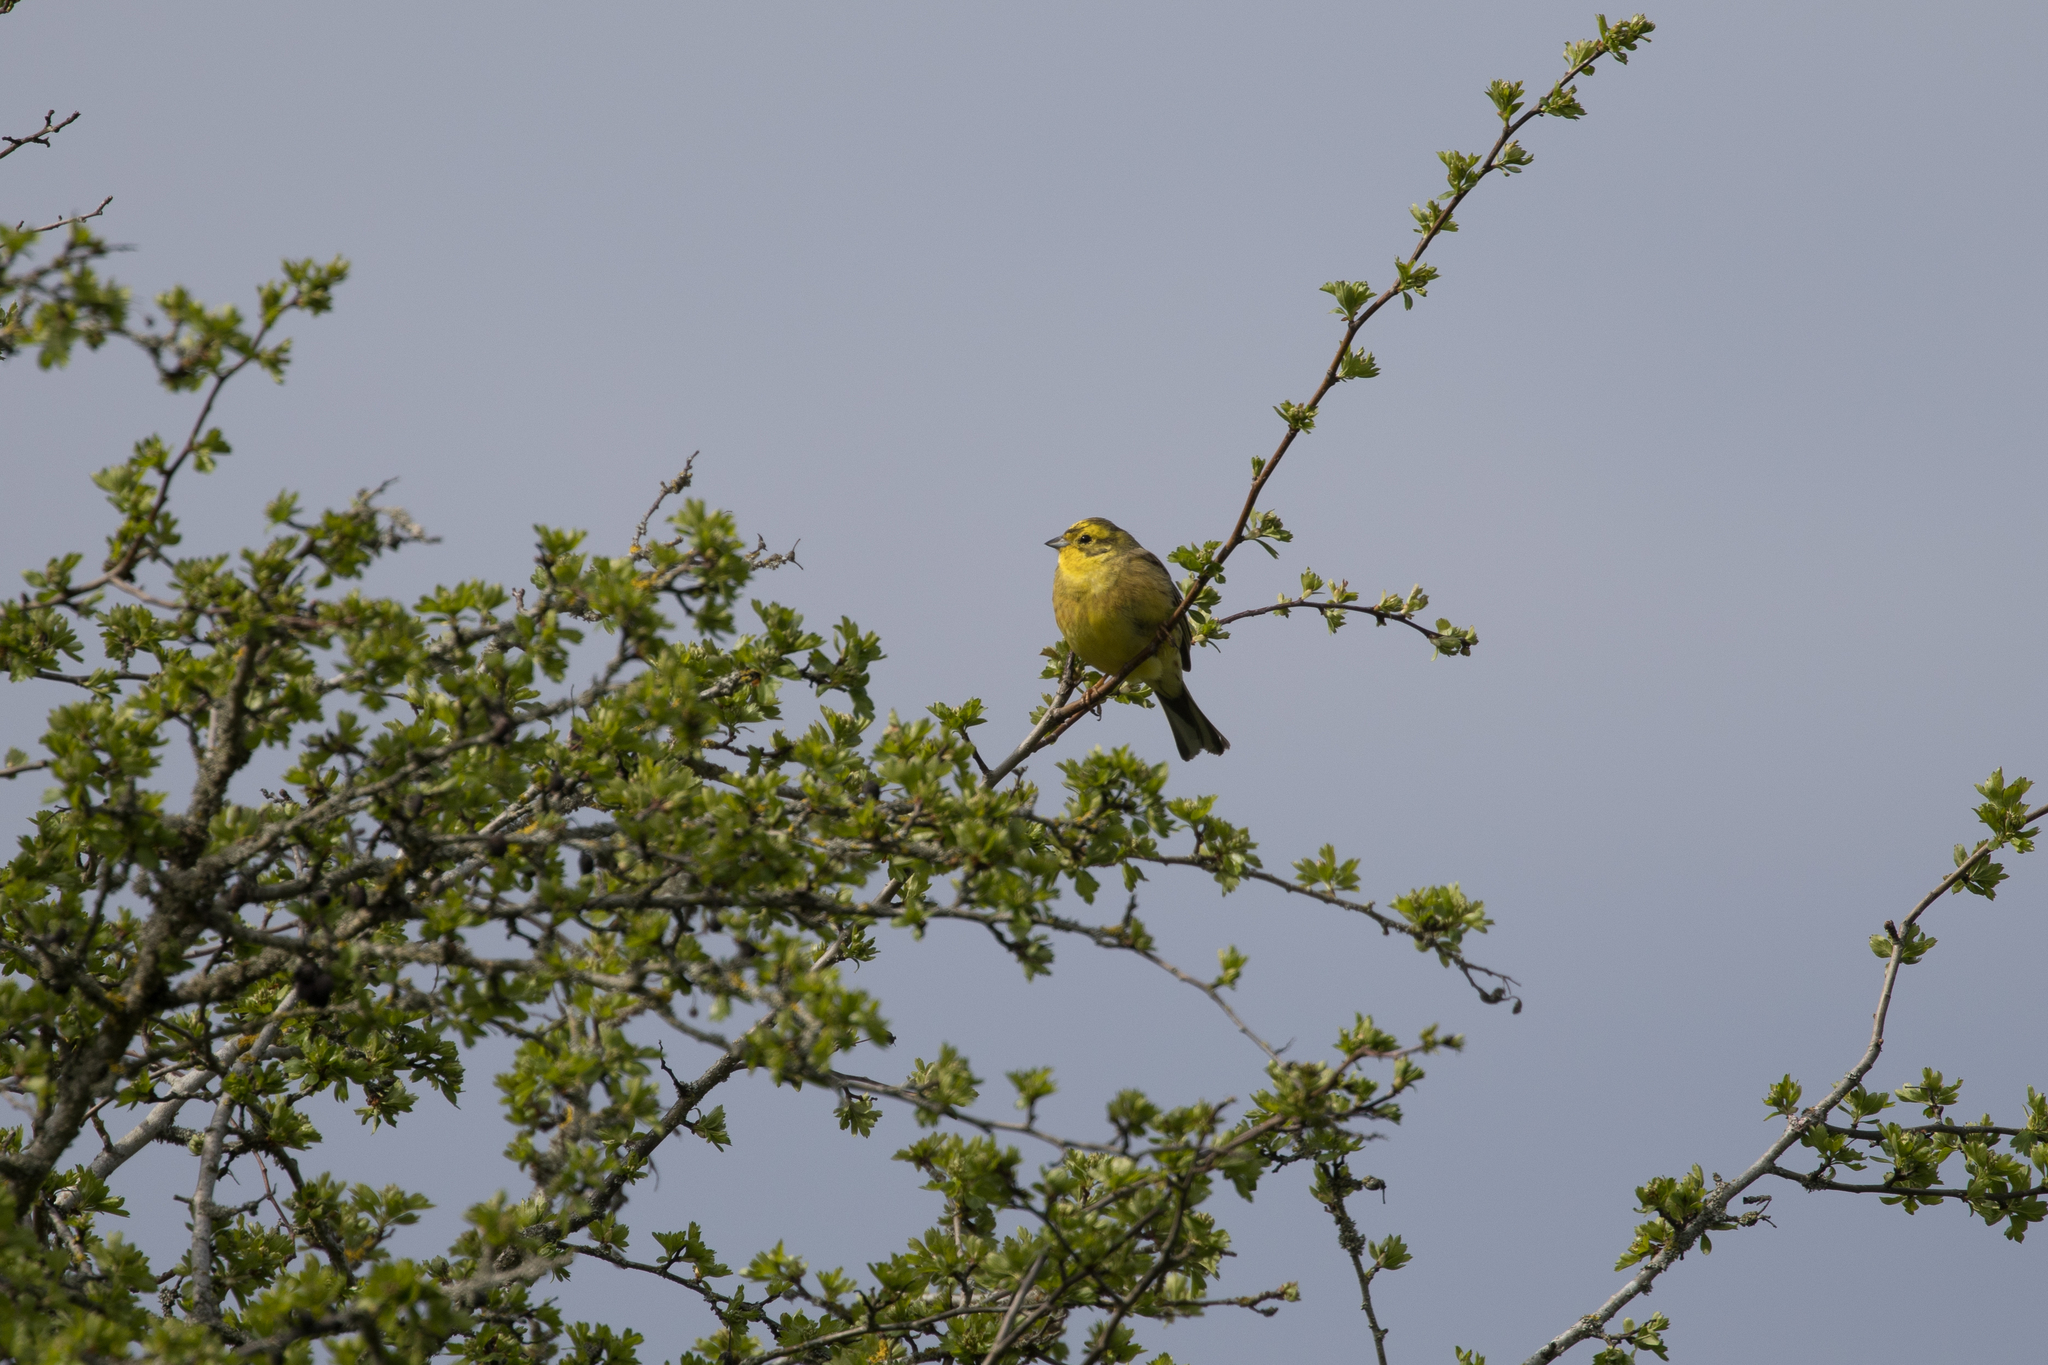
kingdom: Animalia
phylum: Chordata
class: Aves
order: Passeriformes
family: Emberizidae
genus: Emberiza
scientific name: Emberiza citrinella
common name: Yellowhammer
